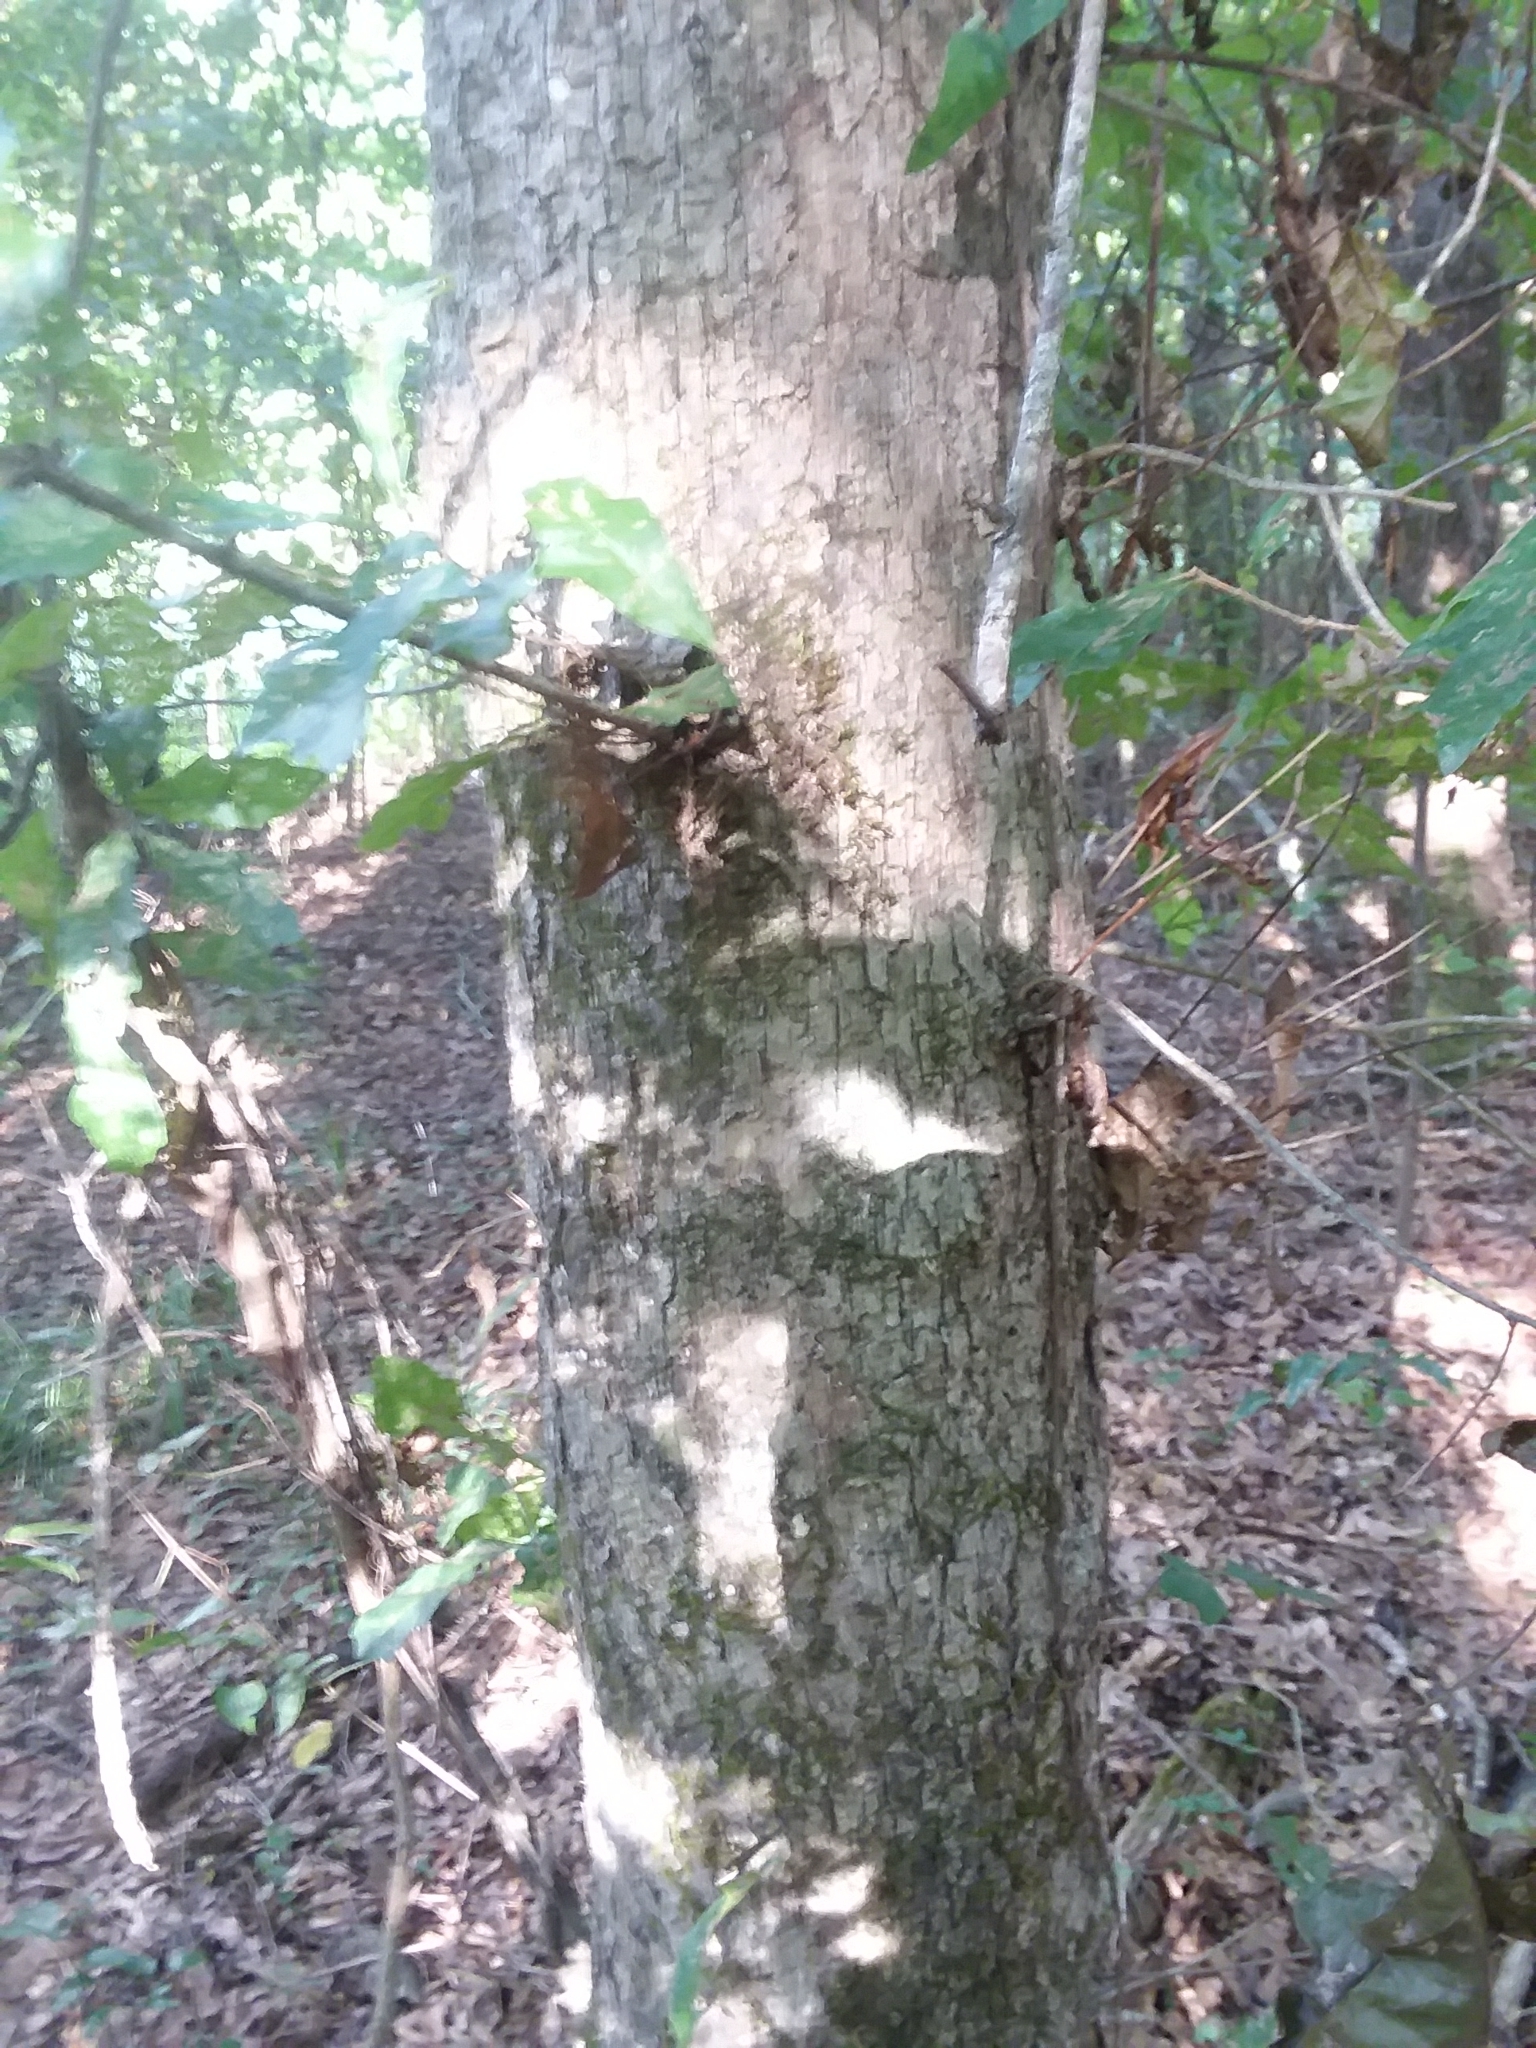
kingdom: Plantae
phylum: Tracheophyta
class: Magnoliopsida
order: Fagales
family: Fagaceae
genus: Quercus
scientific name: Quercus austrina
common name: Bastard white oak
